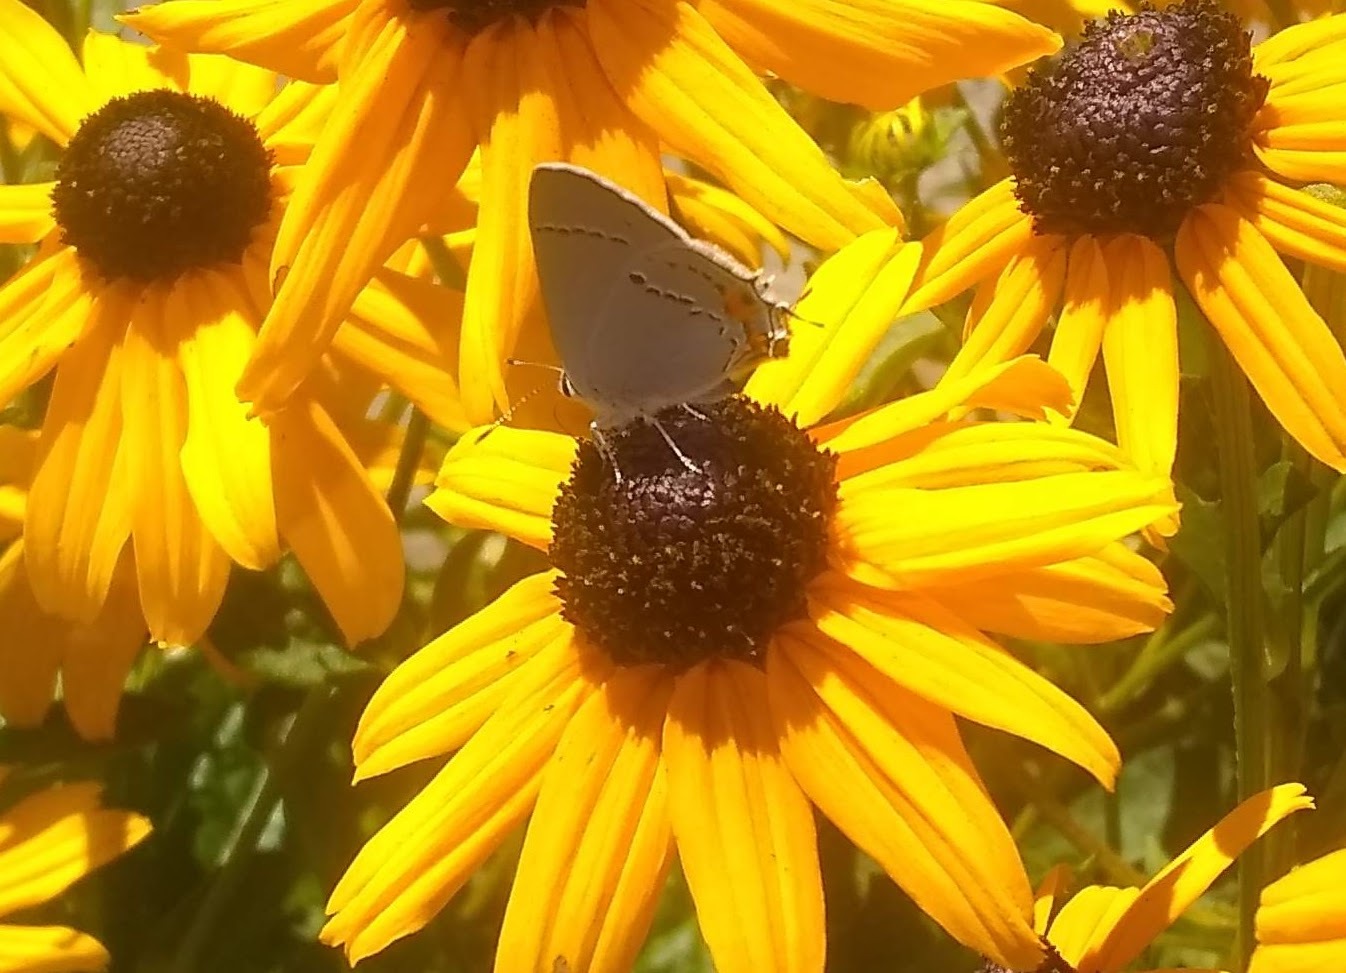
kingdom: Animalia
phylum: Arthropoda
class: Insecta
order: Lepidoptera
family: Lycaenidae
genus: Strymon
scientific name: Strymon melinus
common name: Gray hairstreak
